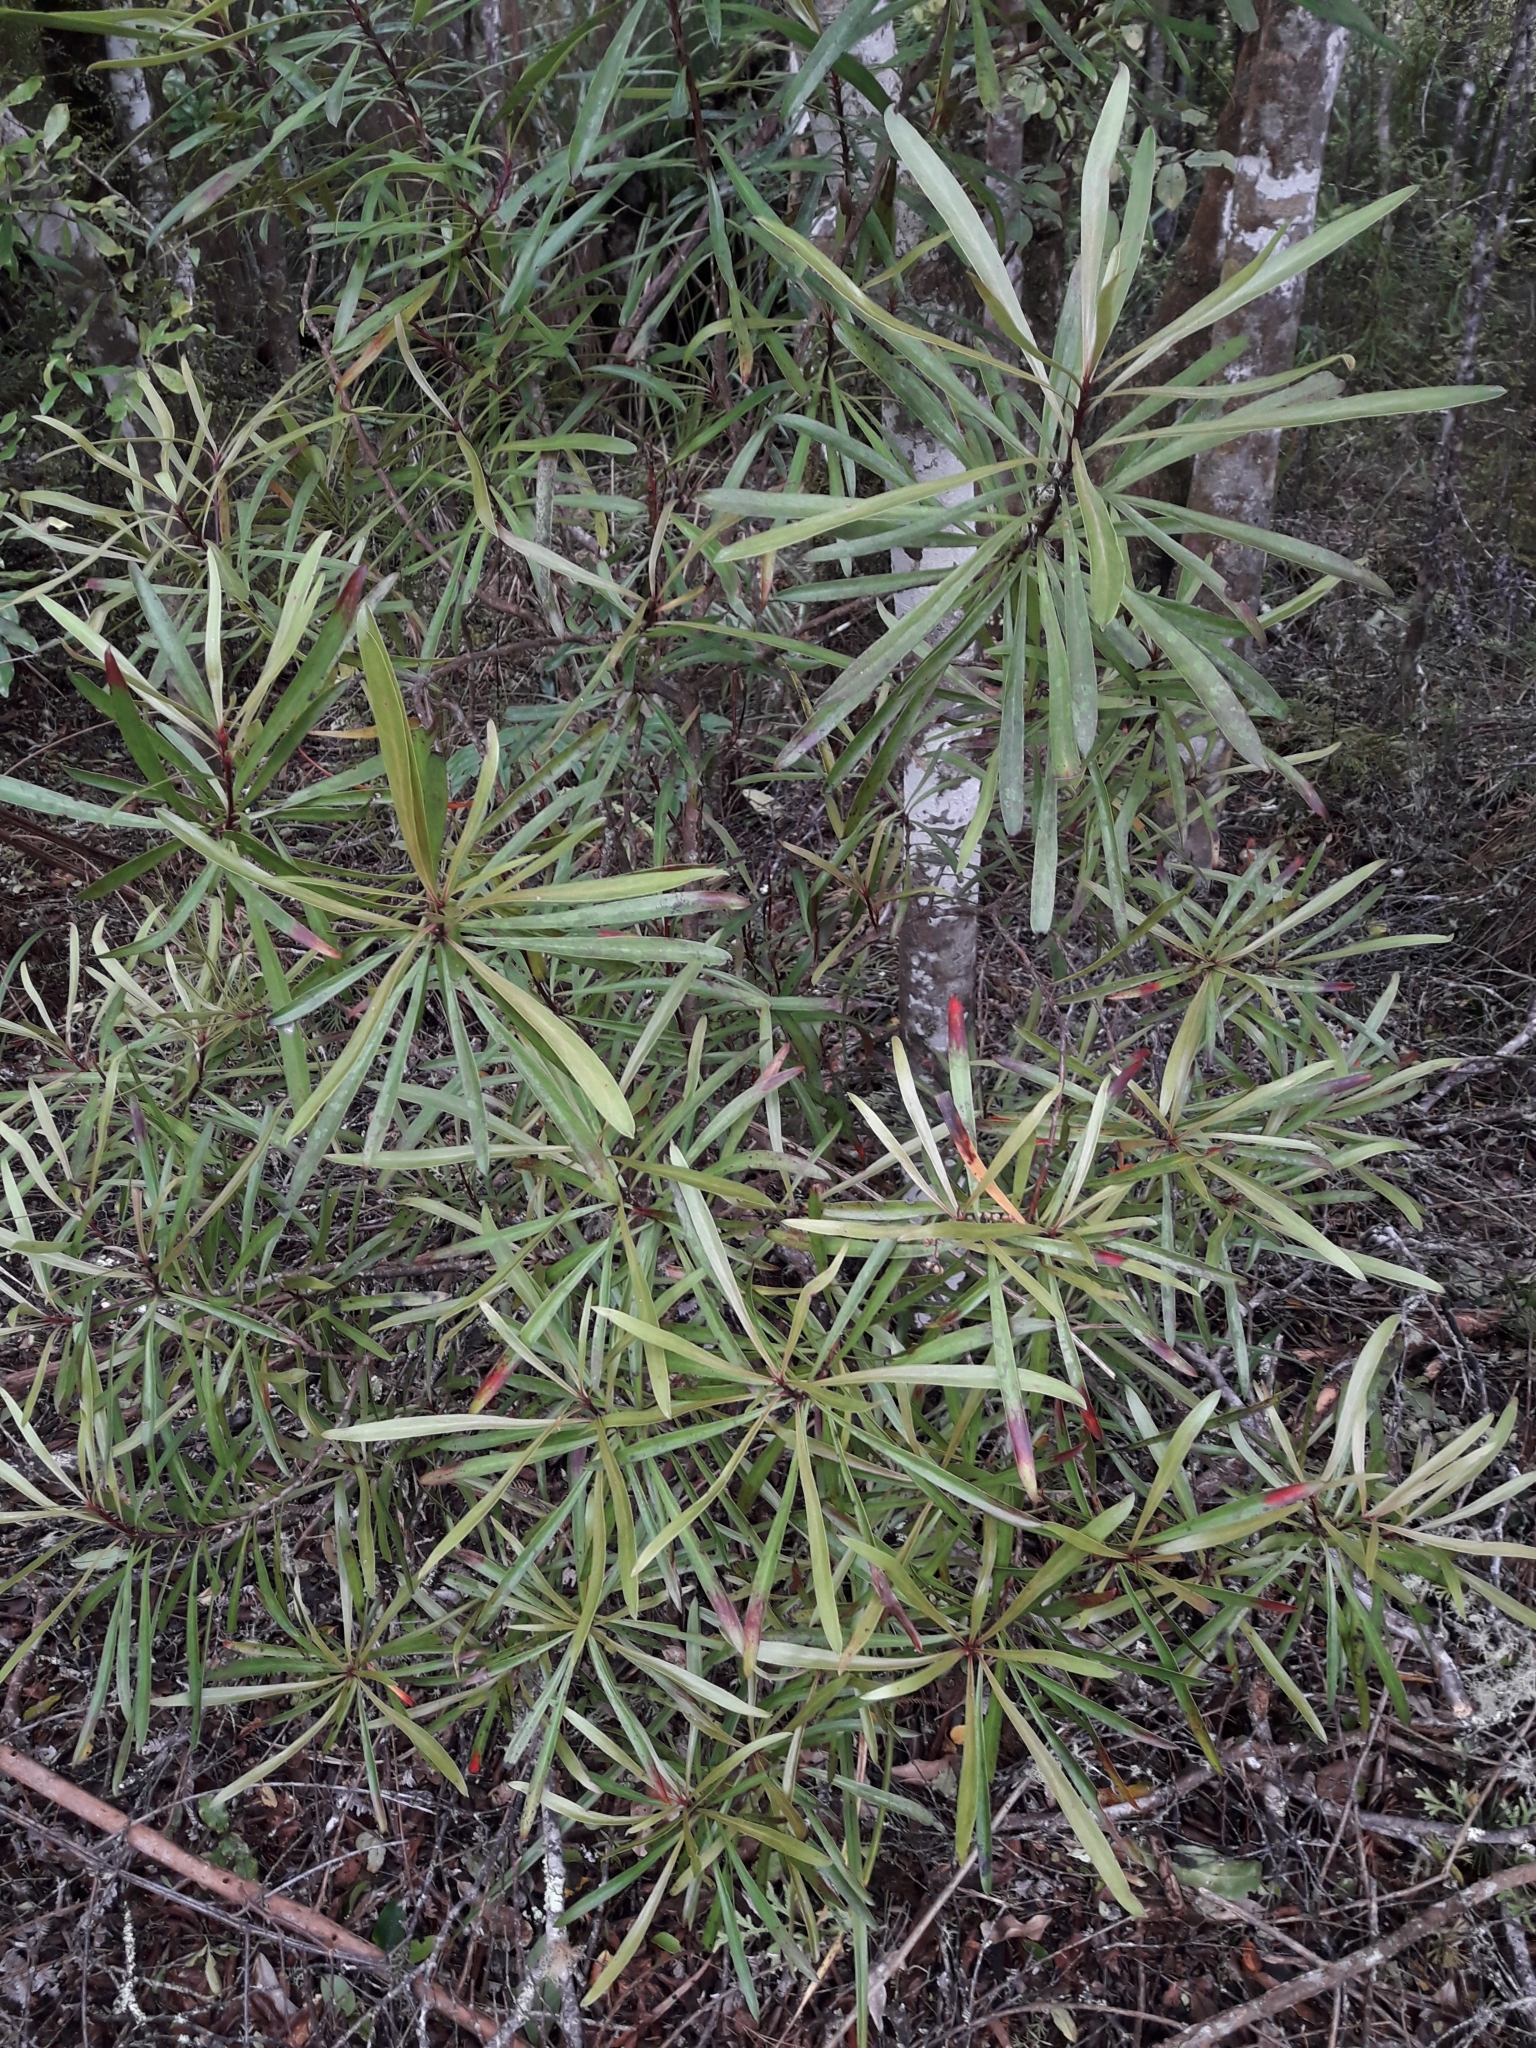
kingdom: Plantae
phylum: Tracheophyta
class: Magnoliopsida
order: Proteales
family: Proteaceae
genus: Toronia
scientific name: Toronia toru
